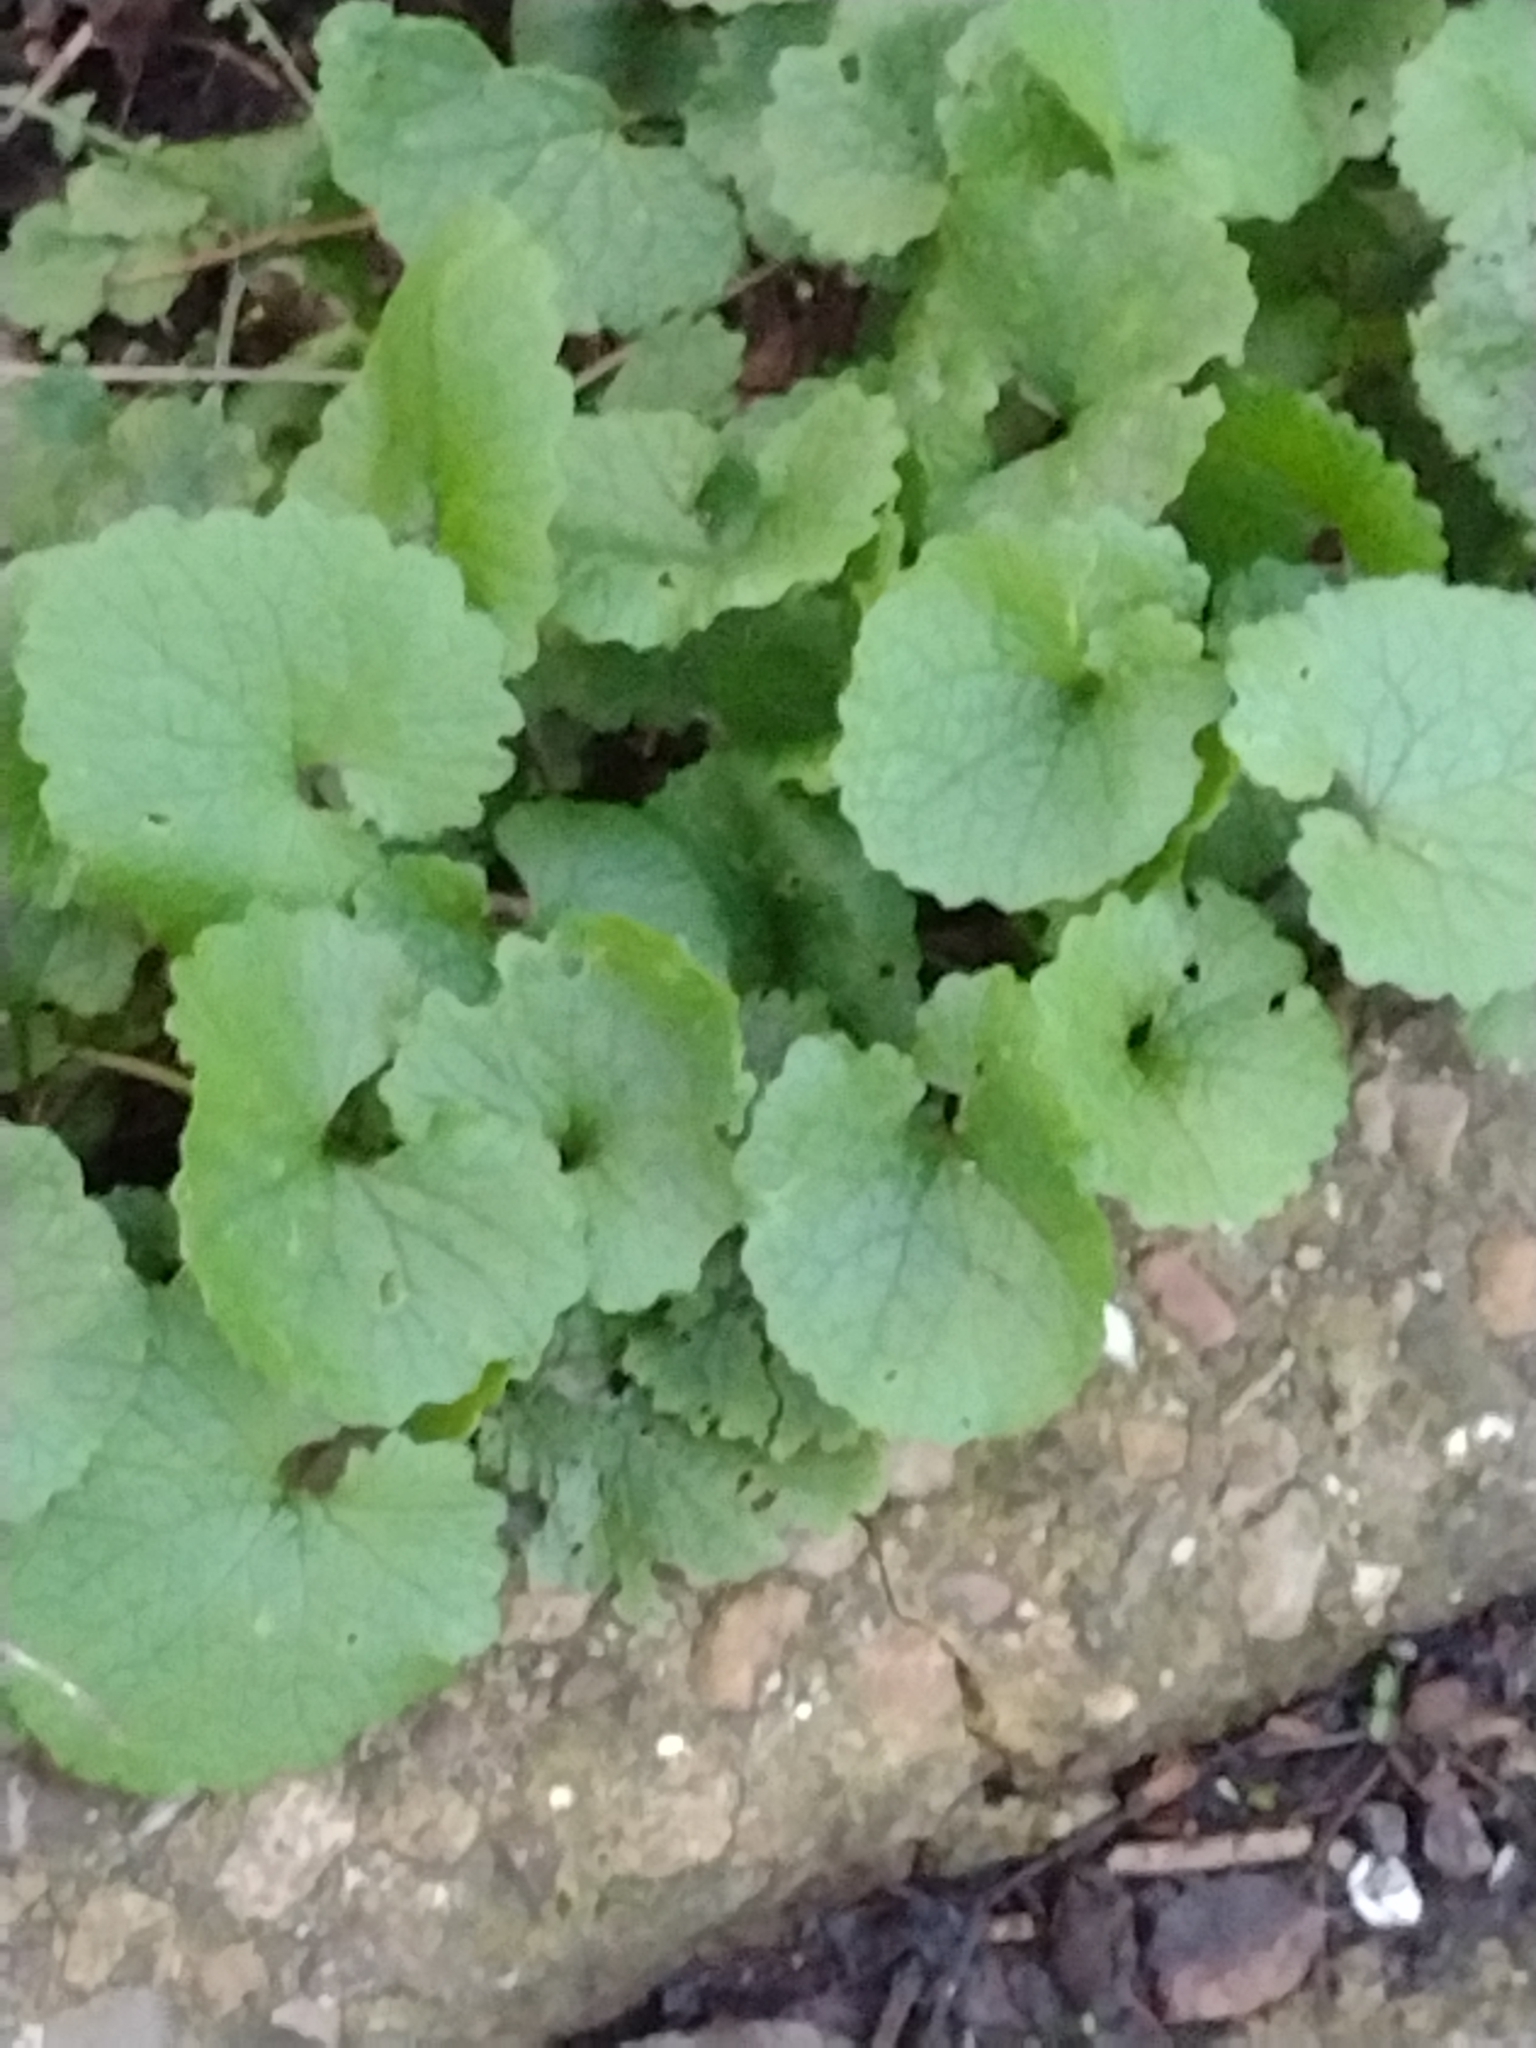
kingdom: Plantae
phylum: Tracheophyta
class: Magnoliopsida
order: Brassicales
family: Brassicaceae
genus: Alliaria
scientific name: Alliaria petiolata
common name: Garlic mustard
